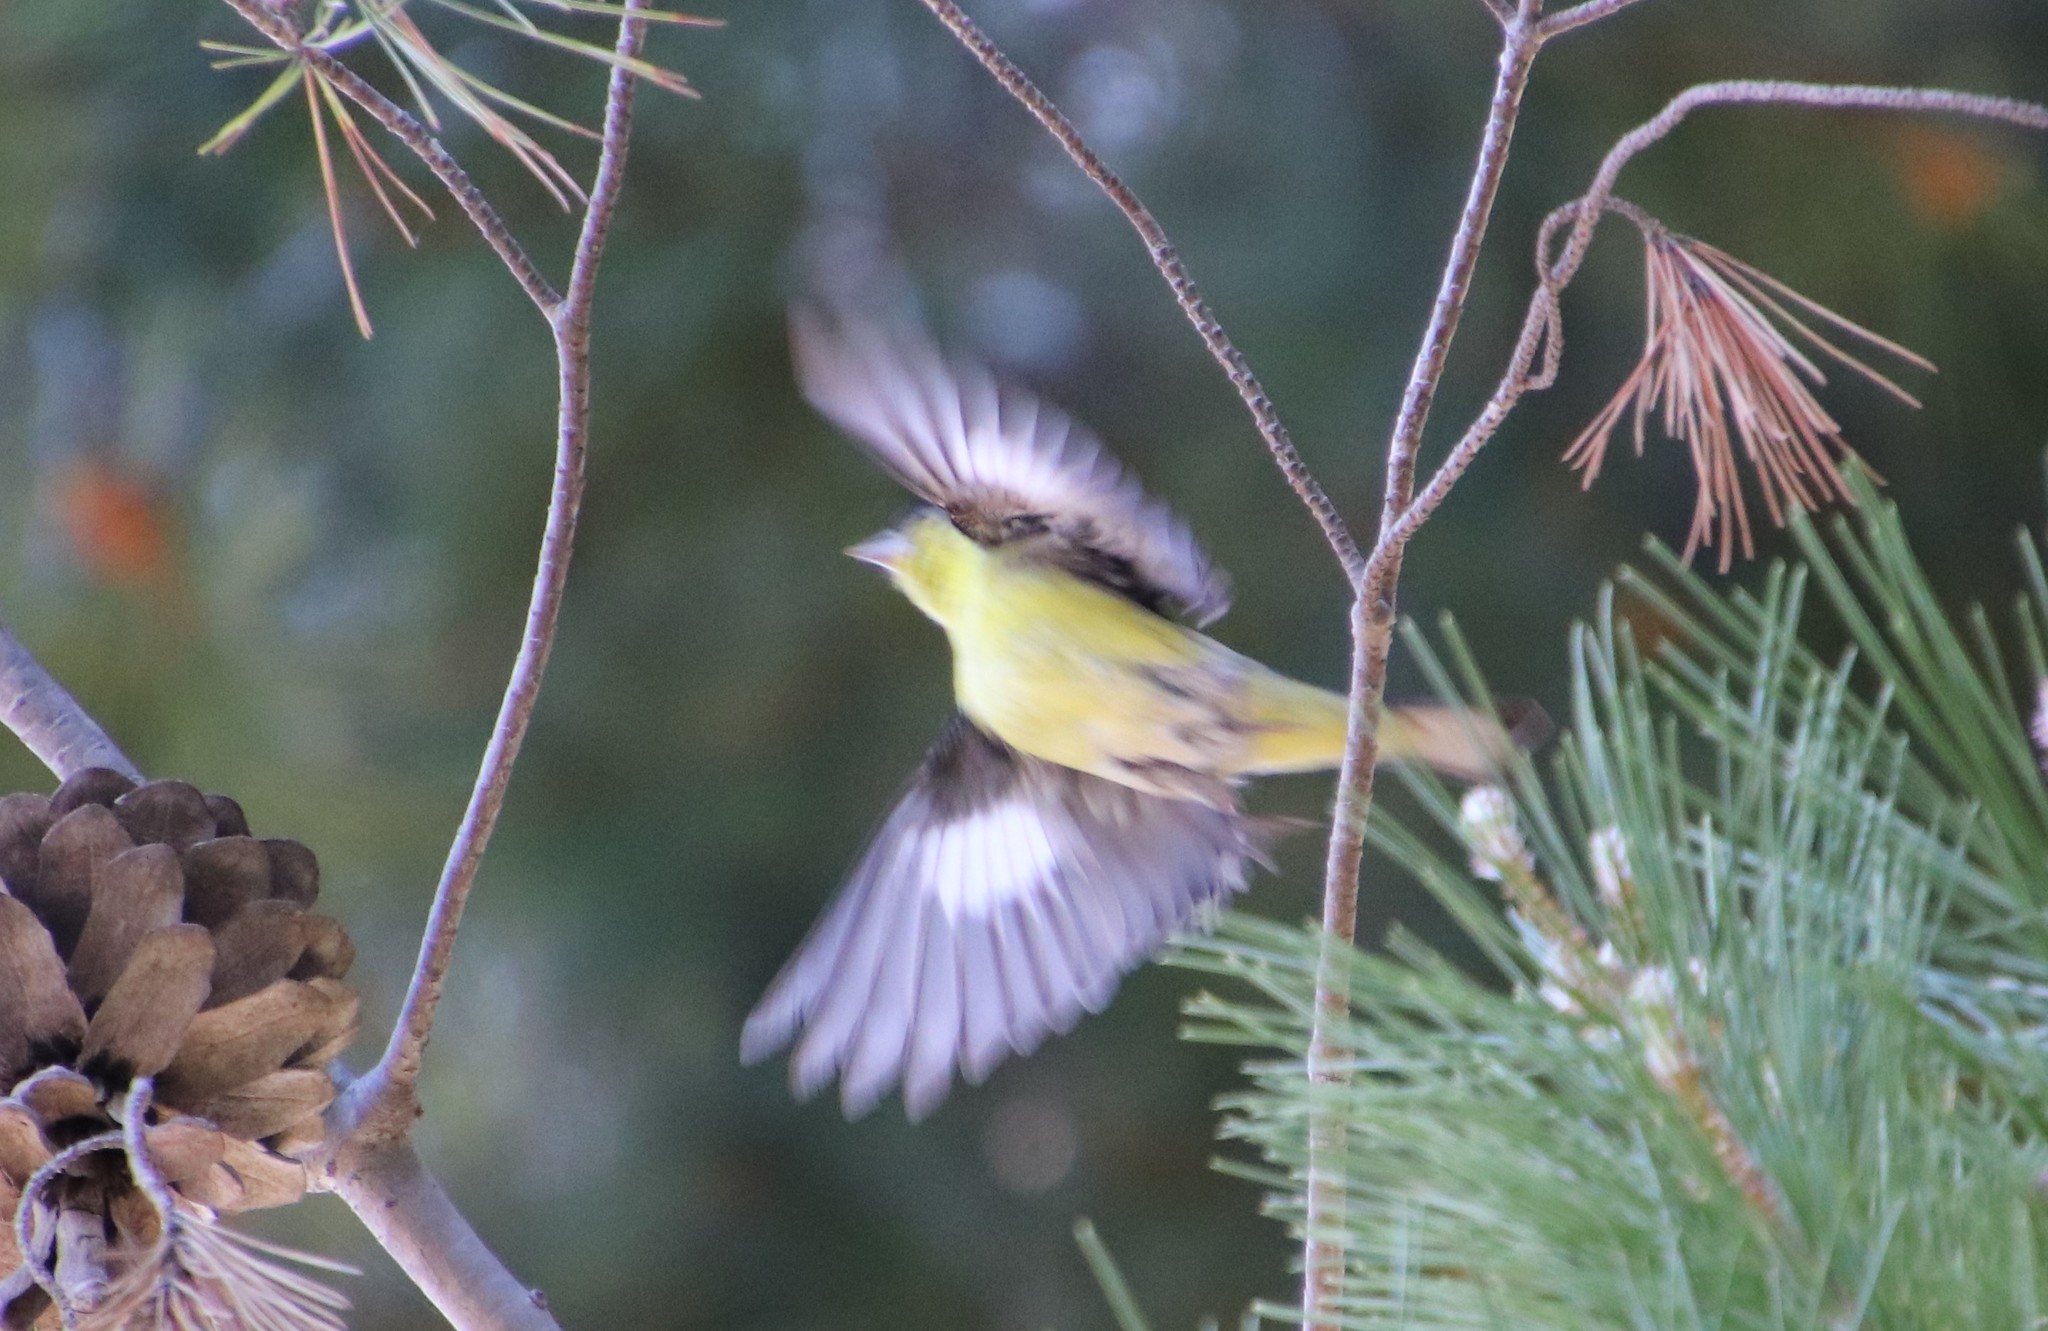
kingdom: Animalia
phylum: Chordata
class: Aves
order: Passeriformes
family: Fringillidae
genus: Spinus
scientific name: Spinus psaltria
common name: Lesser goldfinch
